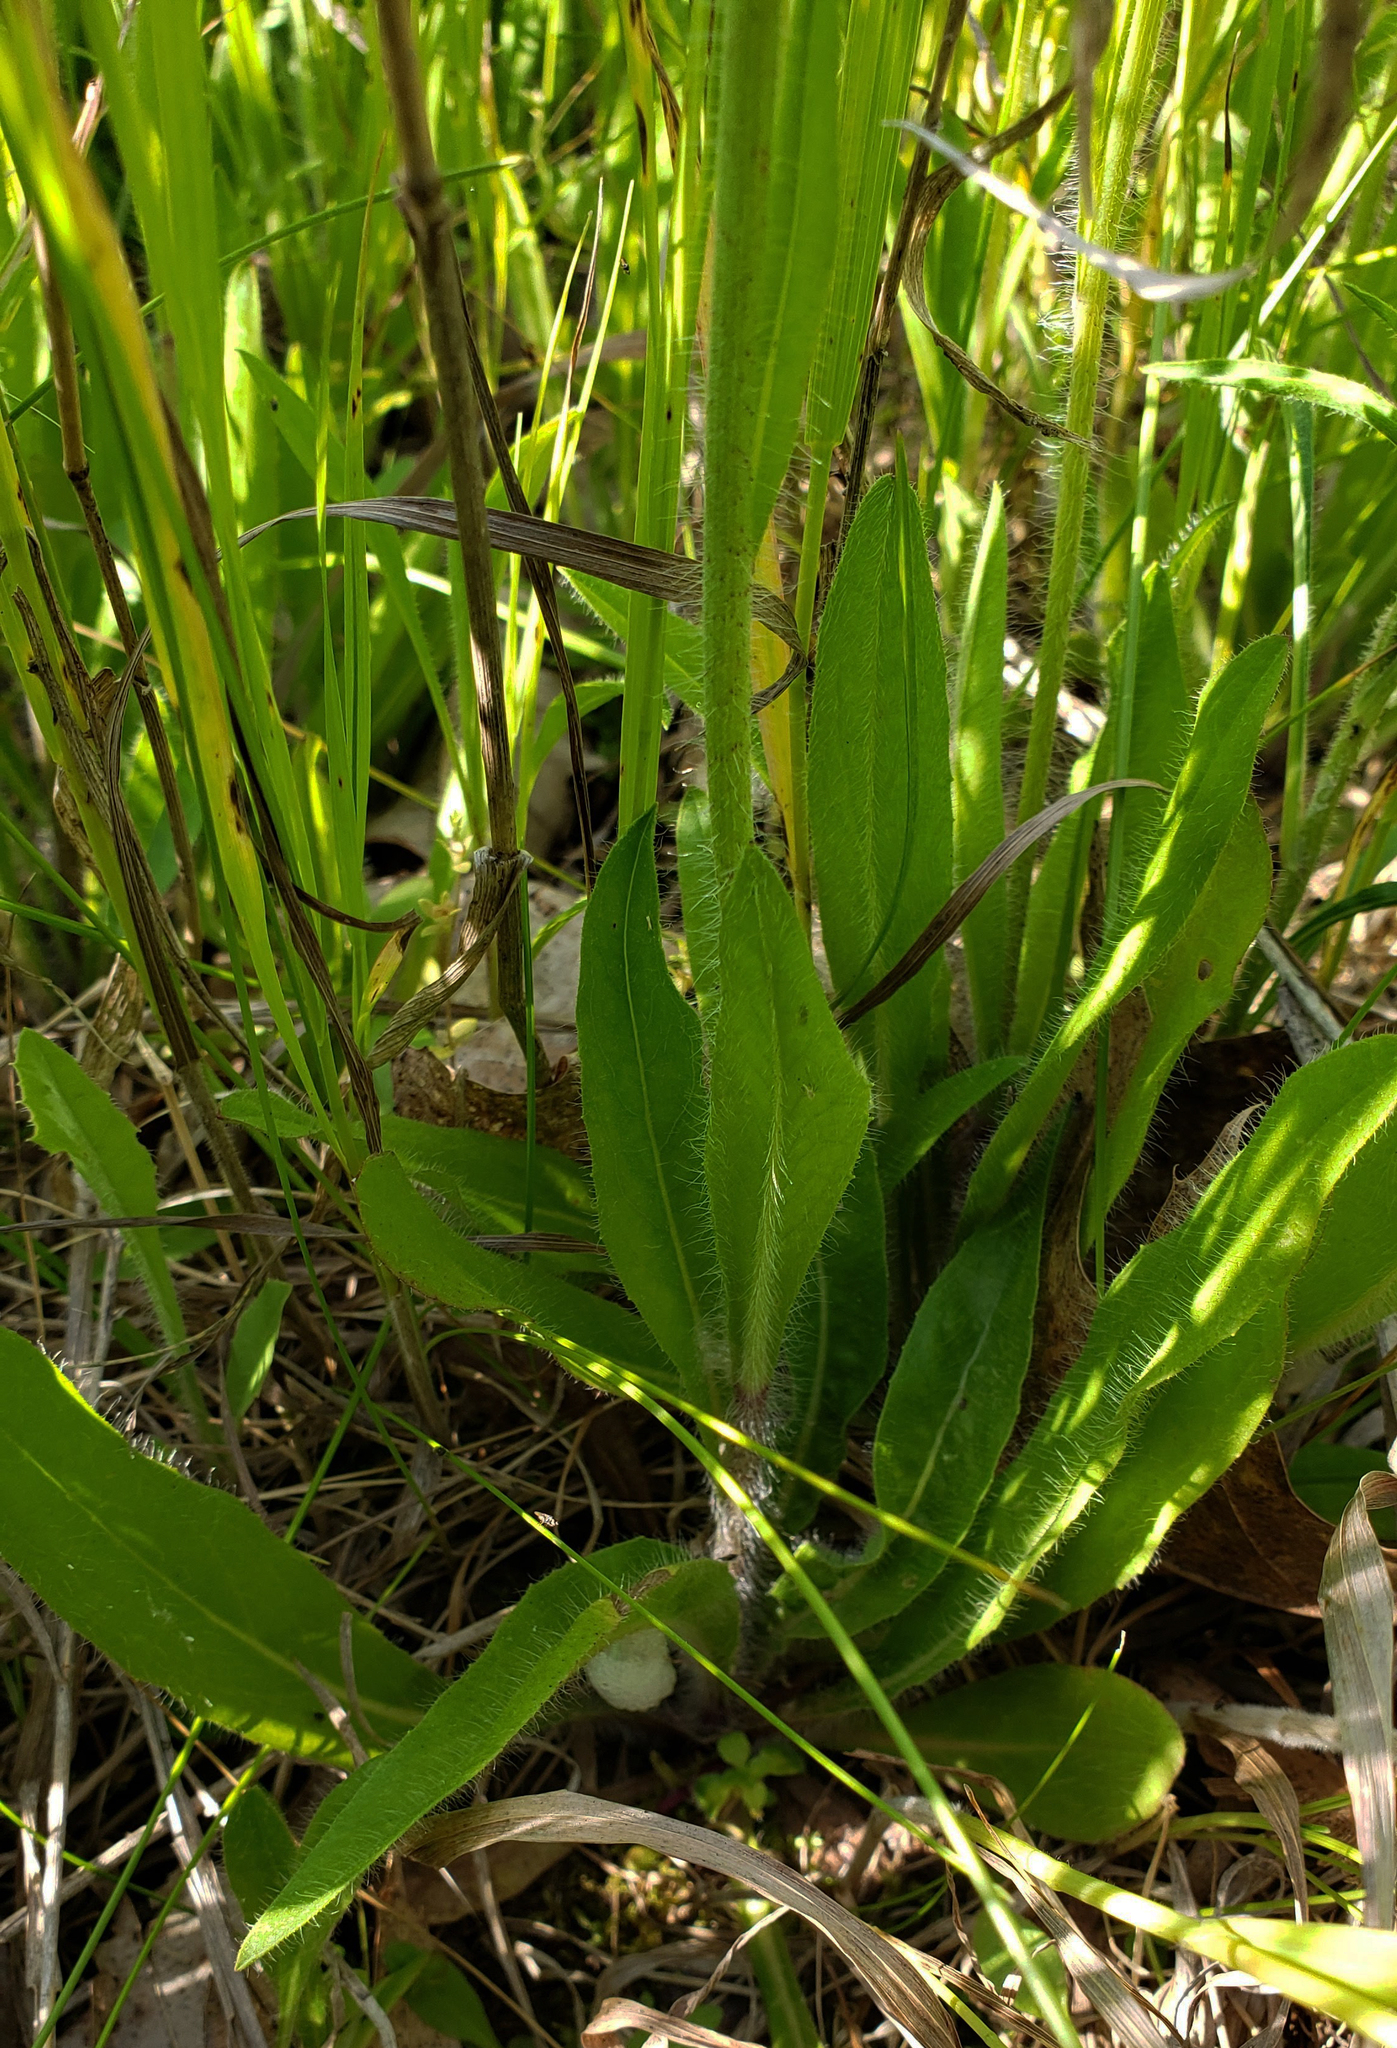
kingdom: Plantae
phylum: Tracheophyta
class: Magnoliopsida
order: Asterales
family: Asteraceae
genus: Pilosella
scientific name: Pilosella caespitosa
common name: Yellow fox-and-cubs
